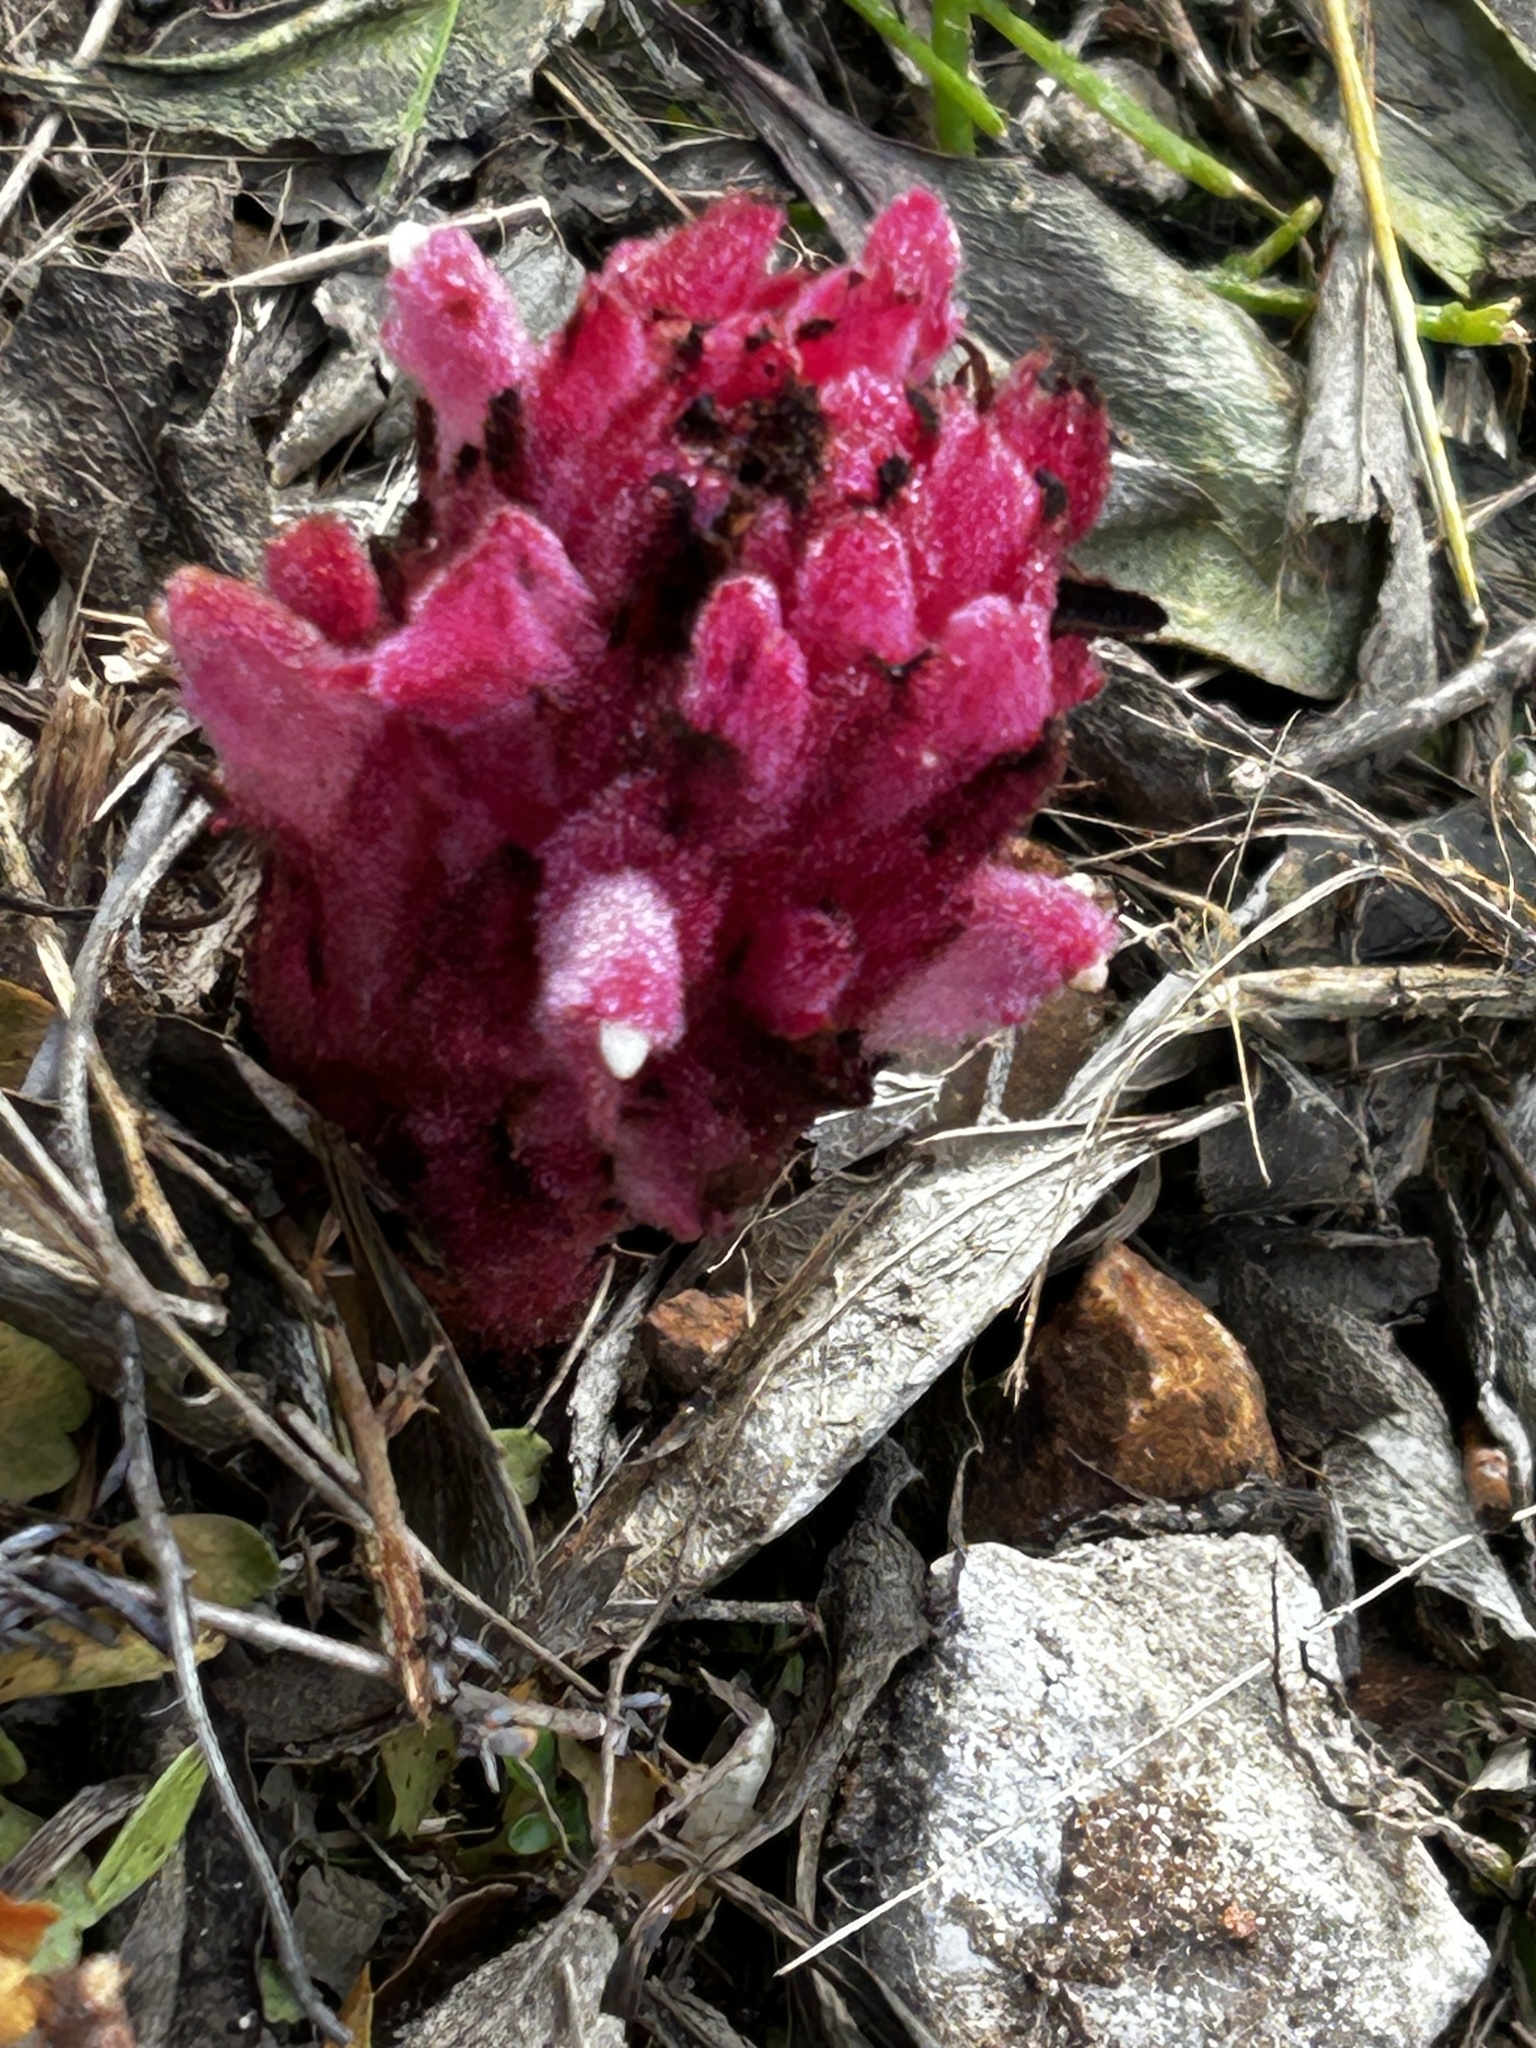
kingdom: Plantae
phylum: Tracheophyta
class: Magnoliopsida
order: Lamiales
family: Orobanchaceae
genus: Hyobanche
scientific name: Hyobanche sanguinea
